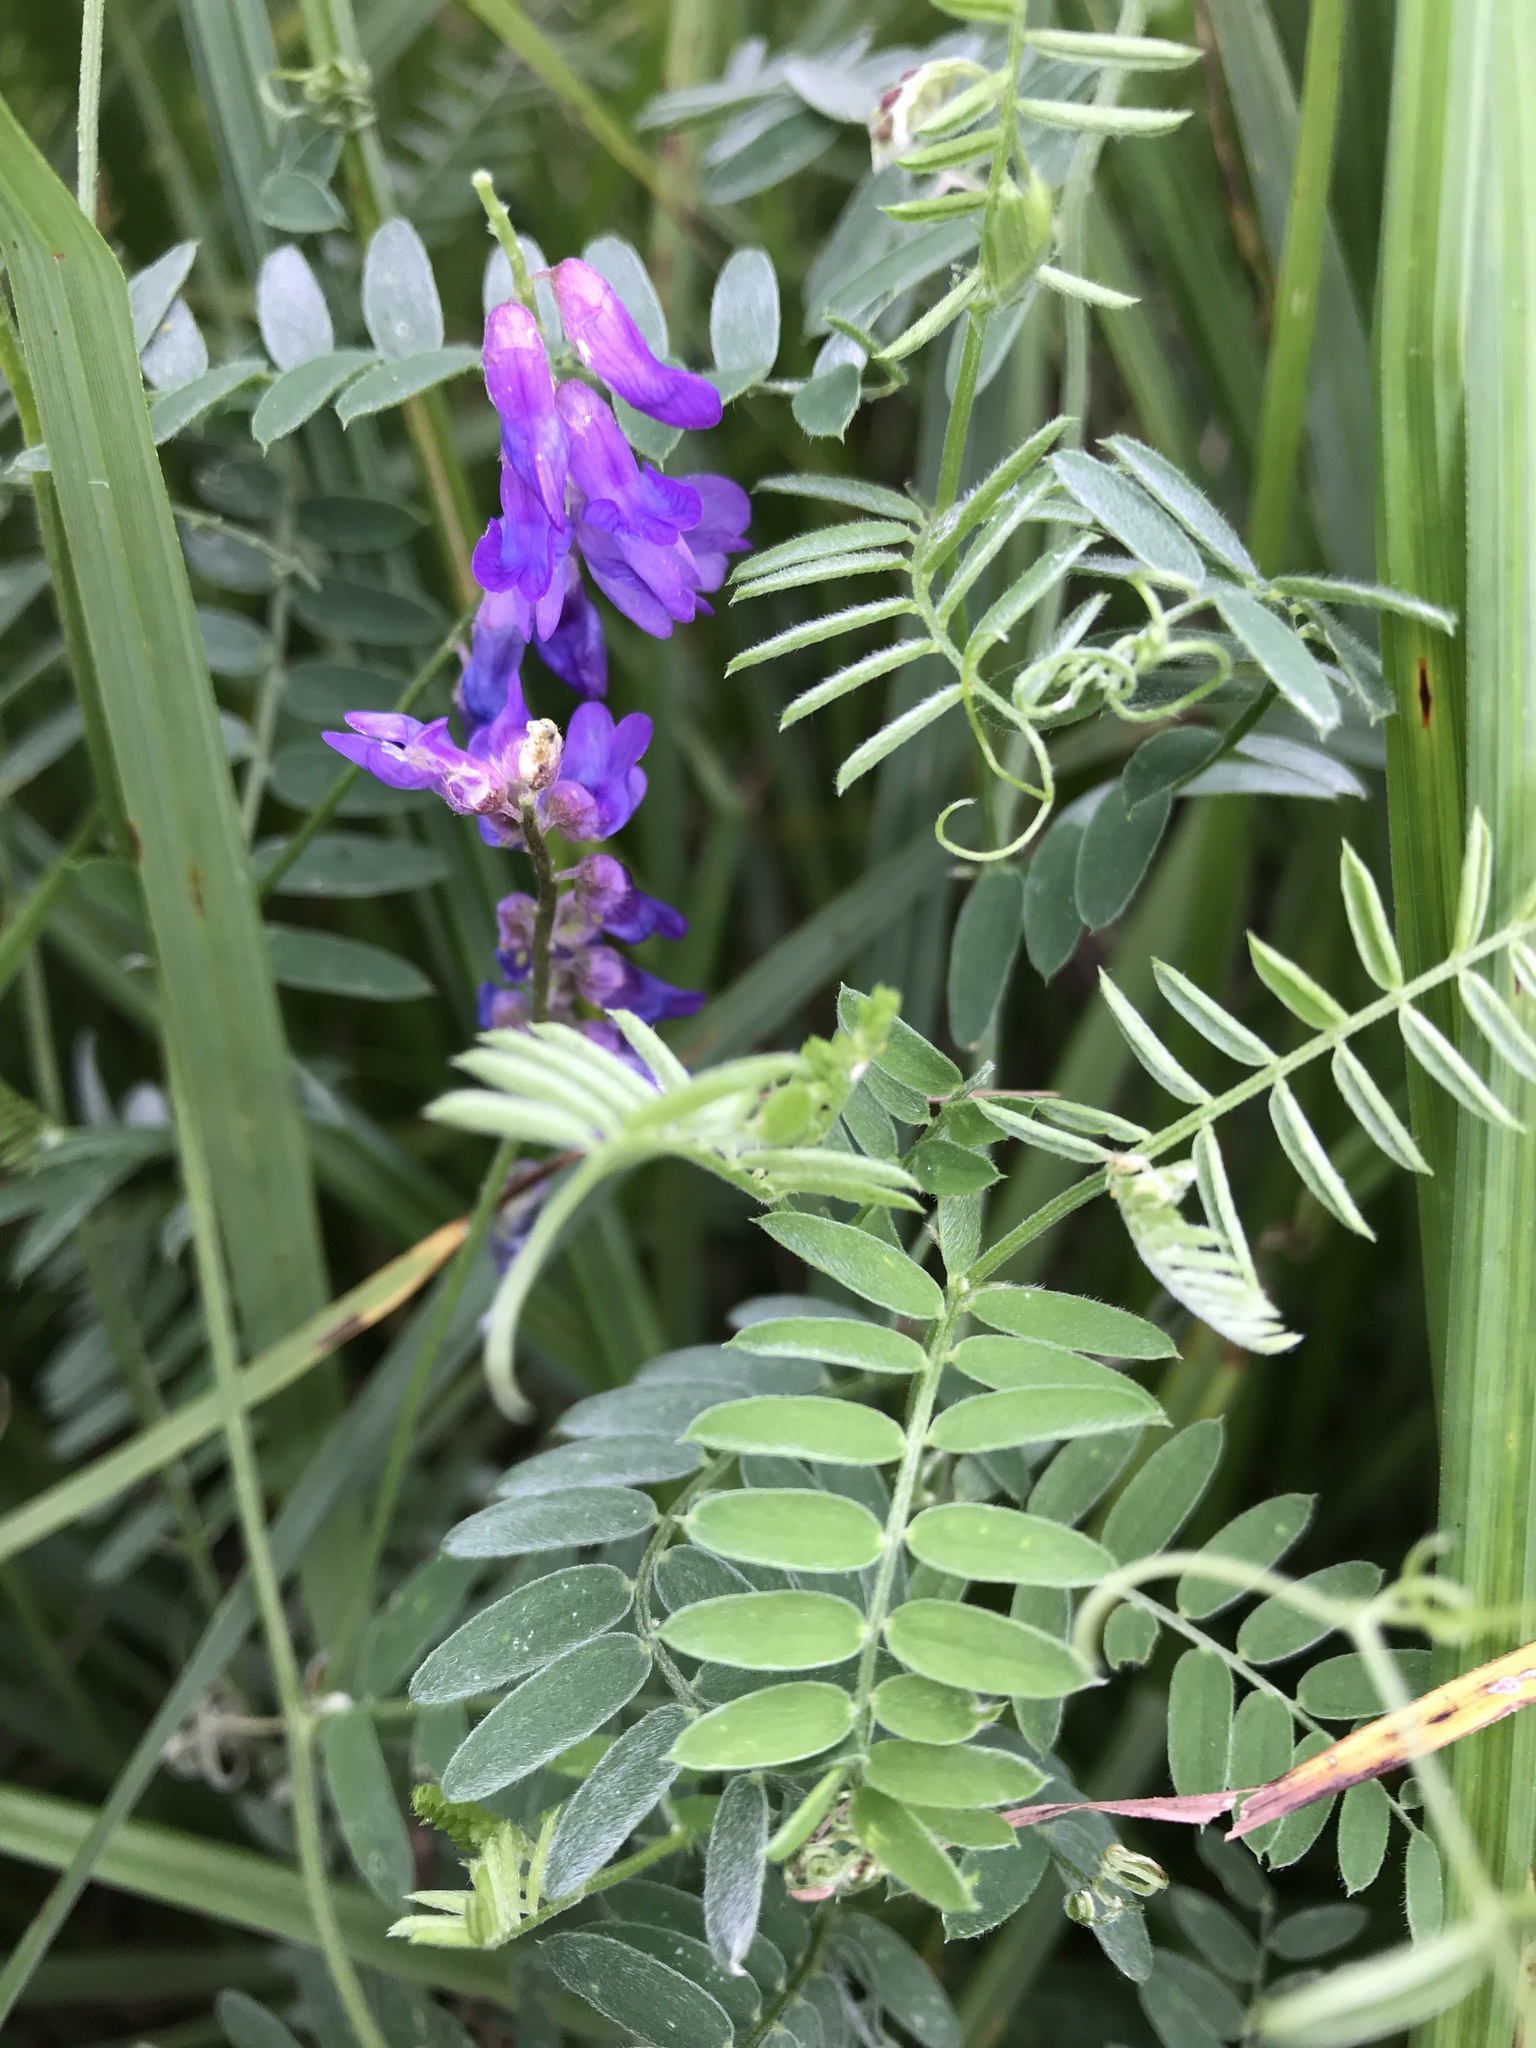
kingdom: Plantae
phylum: Tracheophyta
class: Magnoliopsida
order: Fabales
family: Fabaceae
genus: Vicia
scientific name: Vicia cracca
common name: Bird vetch
